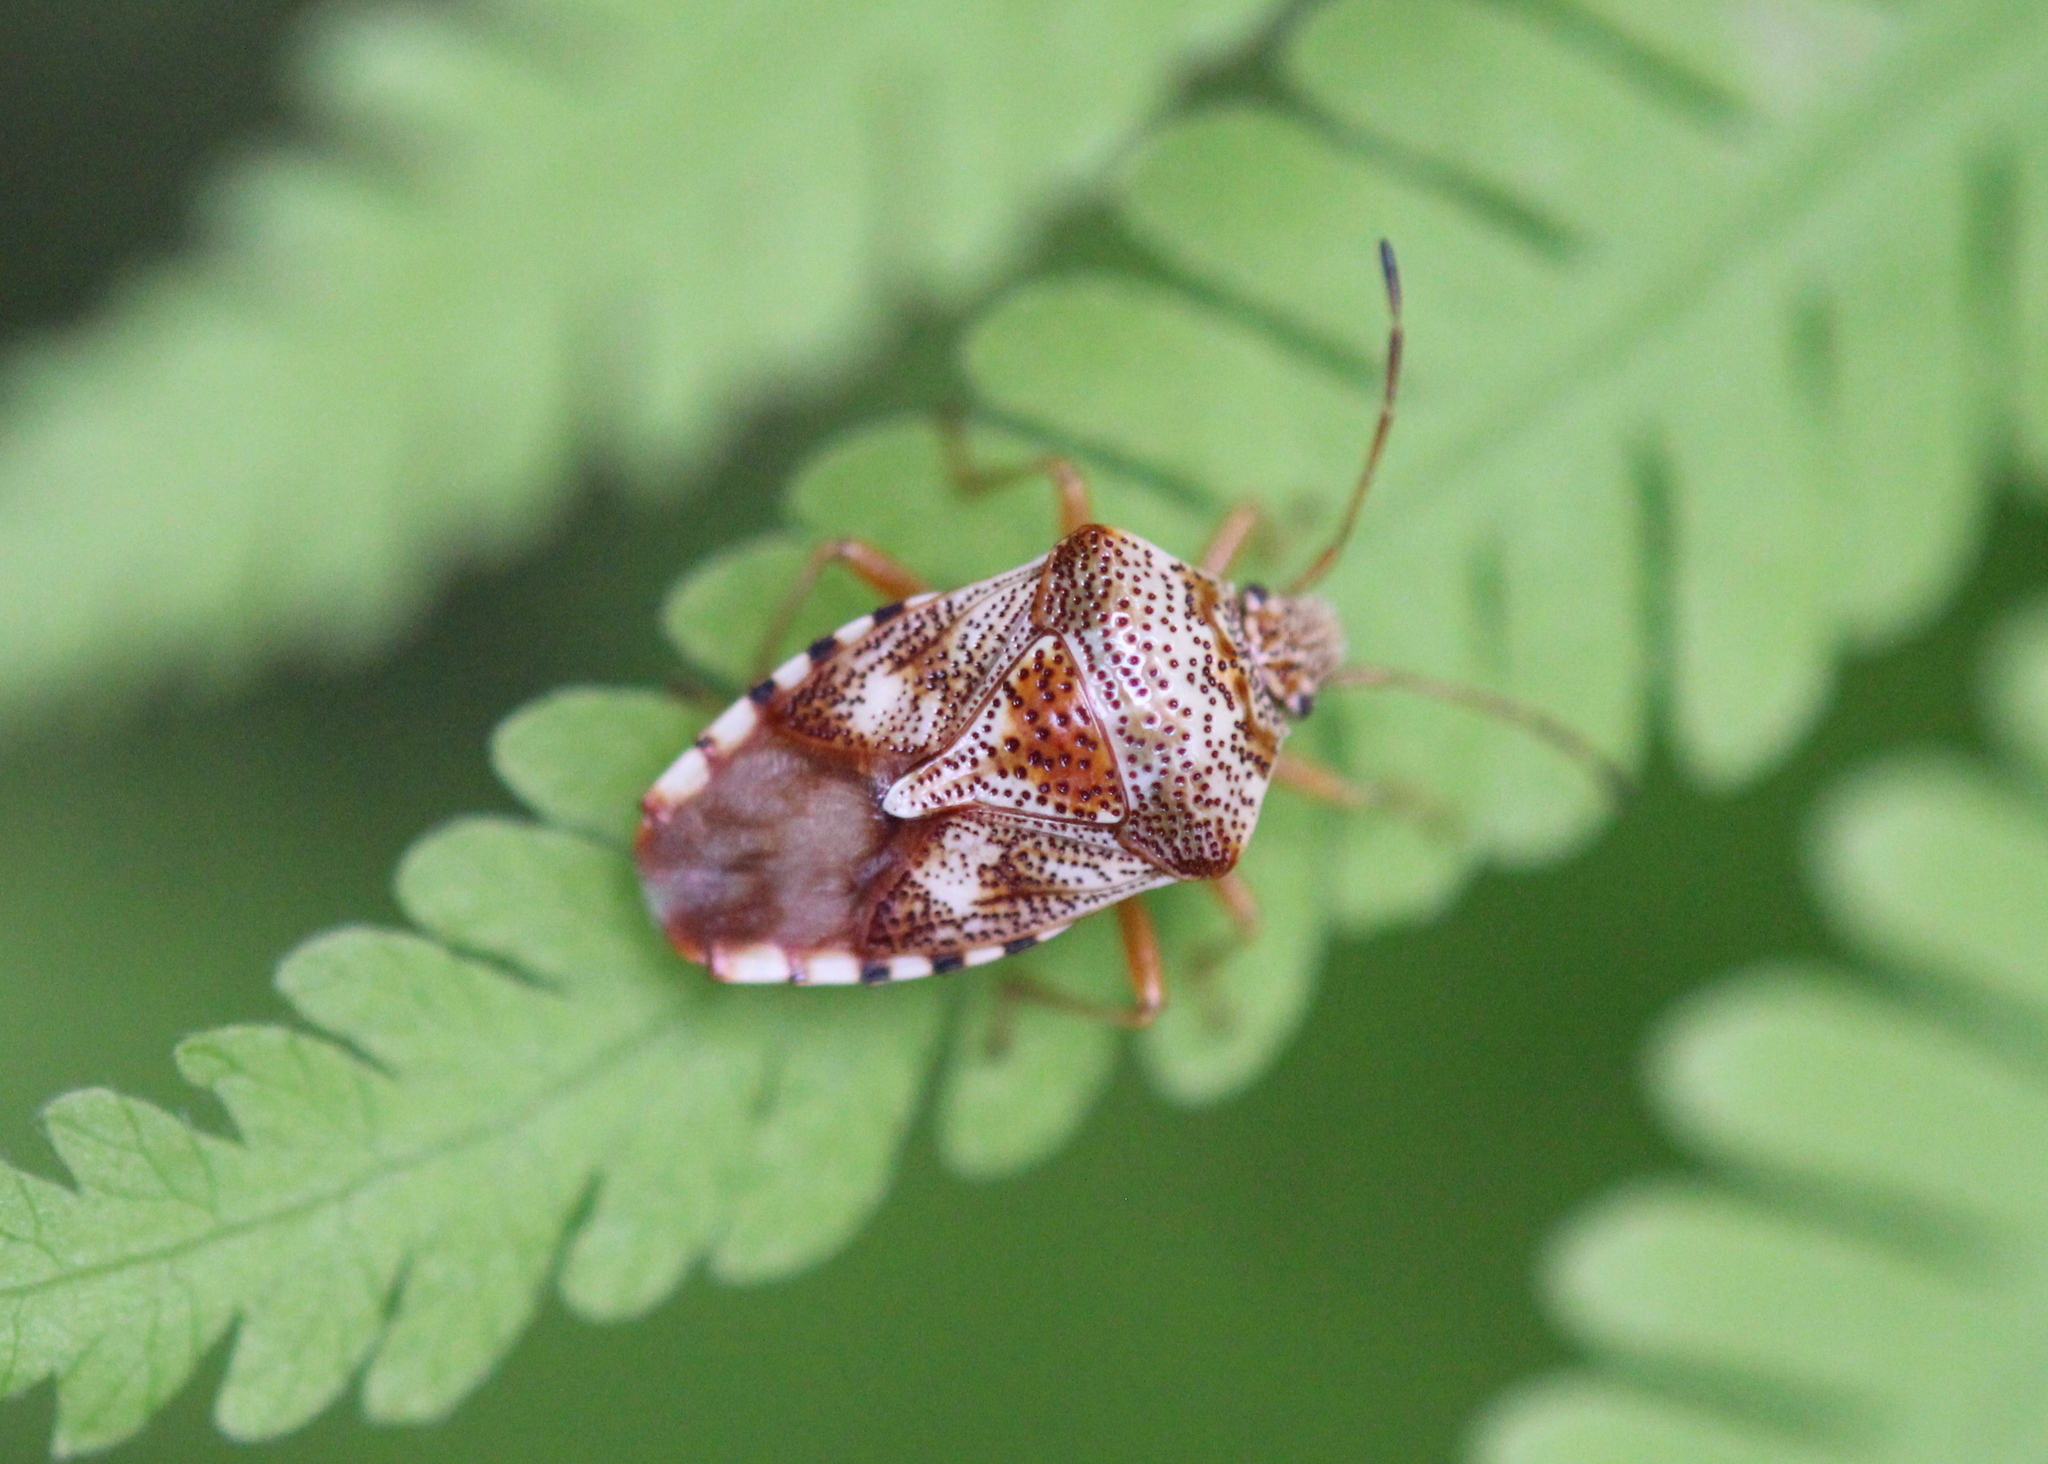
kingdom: Animalia
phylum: Arthropoda
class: Insecta
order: Hemiptera
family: Acanthosomatidae
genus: Elasmucha
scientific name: Elasmucha lateralis
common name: Shield bug
